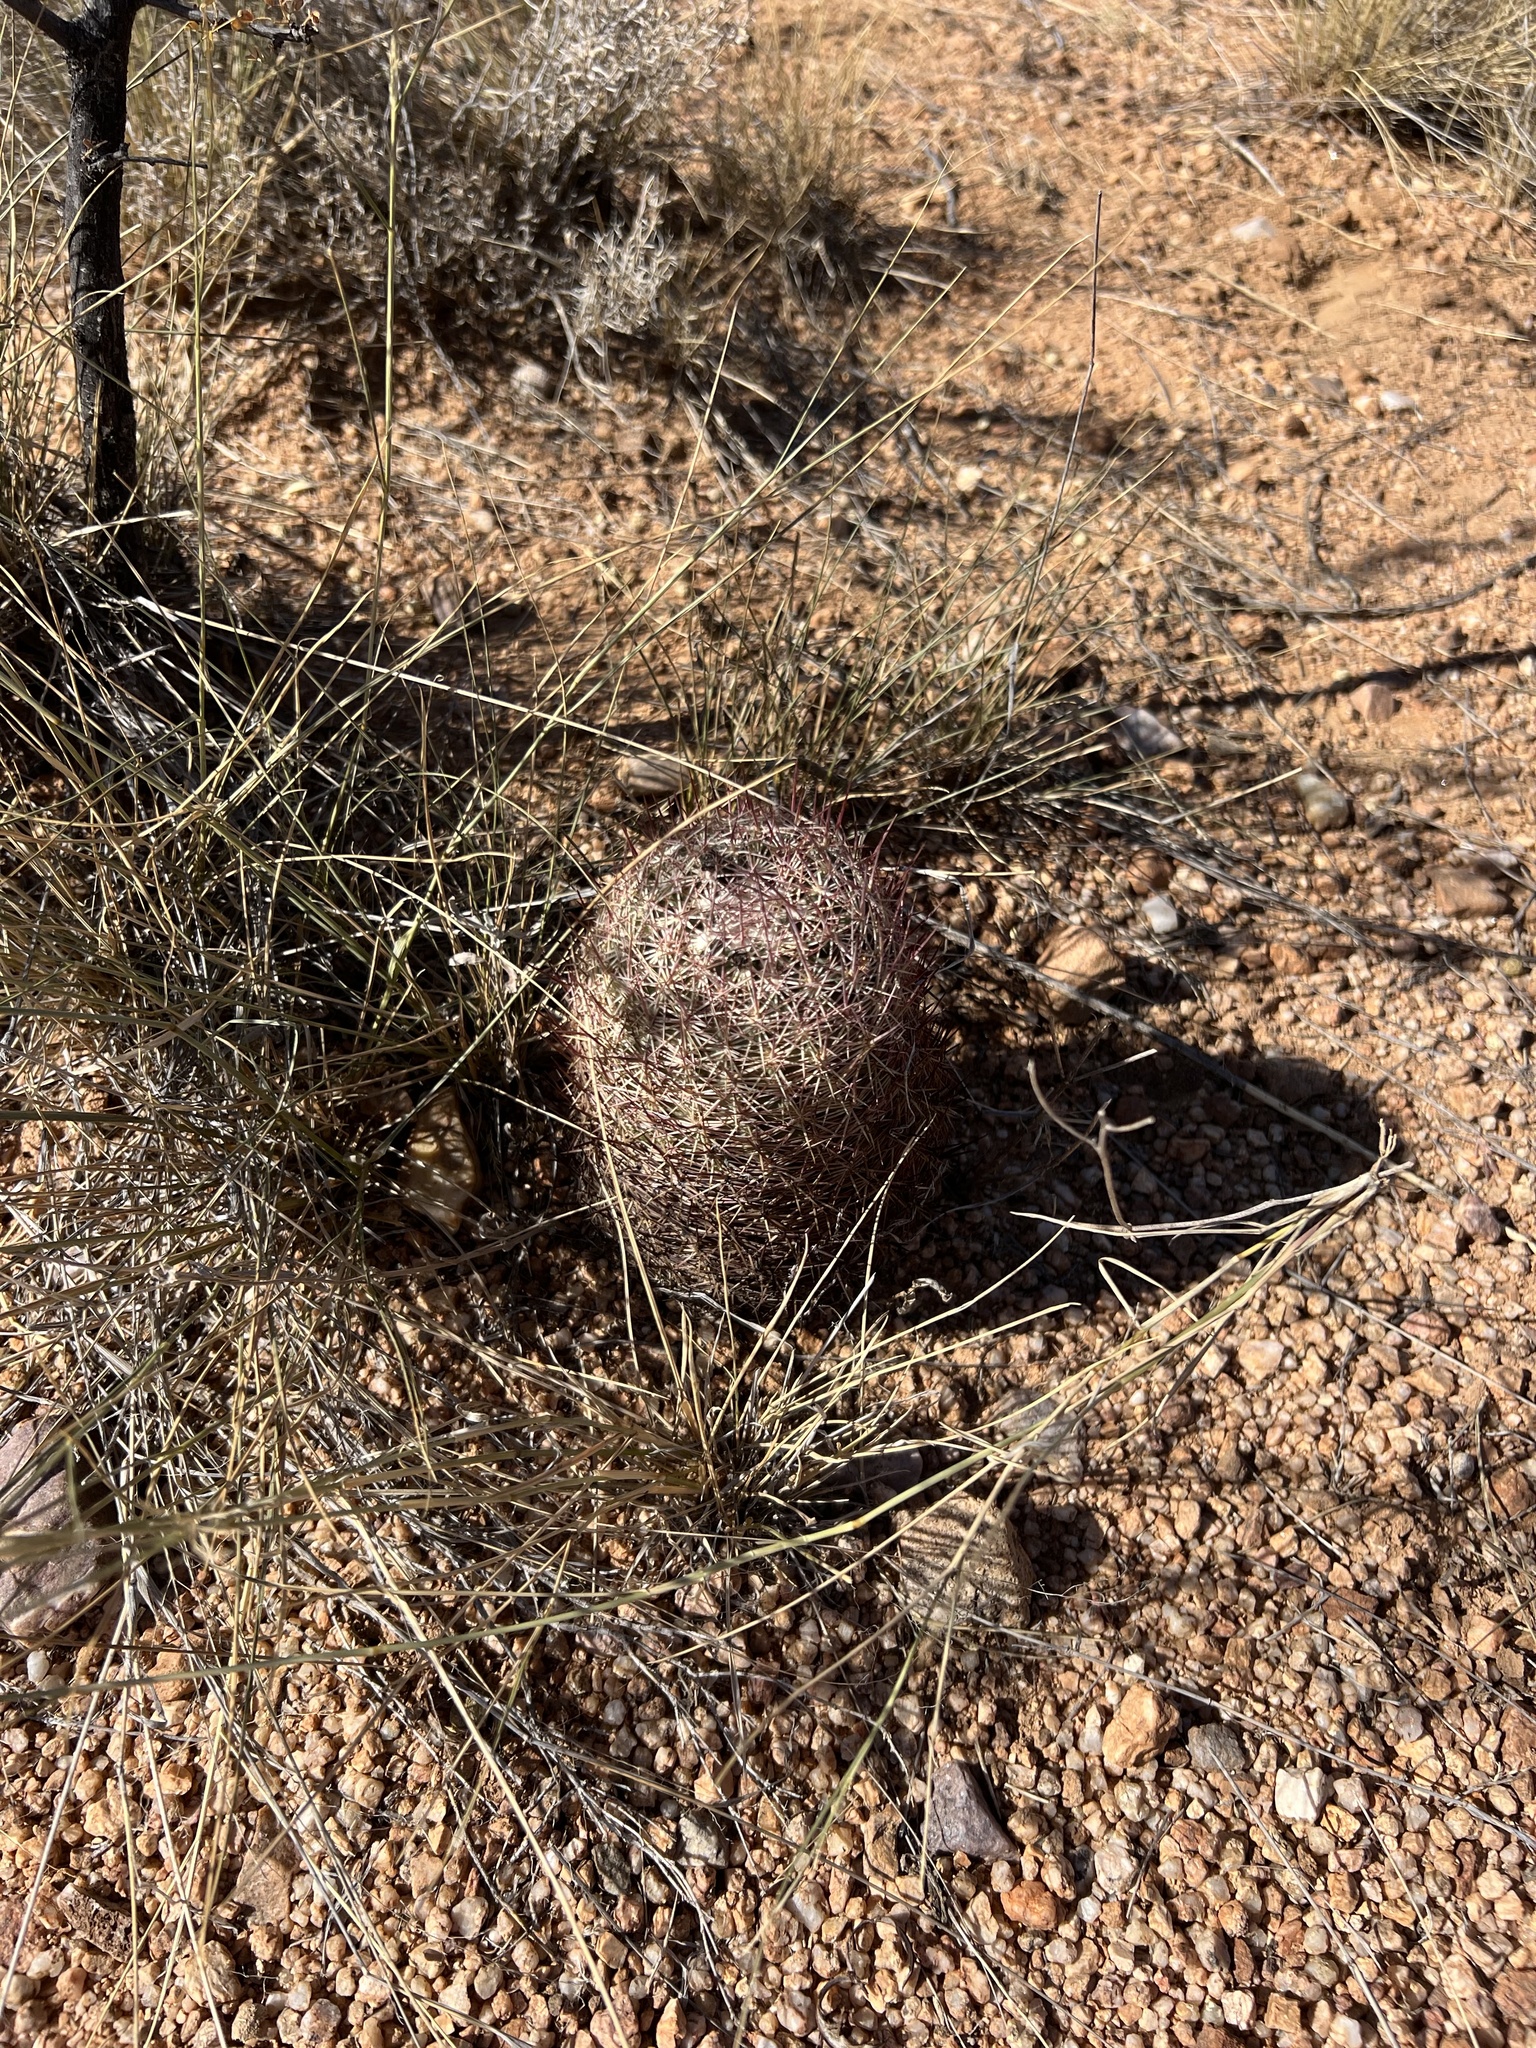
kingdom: Plantae
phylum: Tracheophyta
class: Magnoliopsida
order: Caryophyllales
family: Cactaceae
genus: Sclerocactus
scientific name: Sclerocactus johnsonii
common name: Eight-spine fishhook cactus
